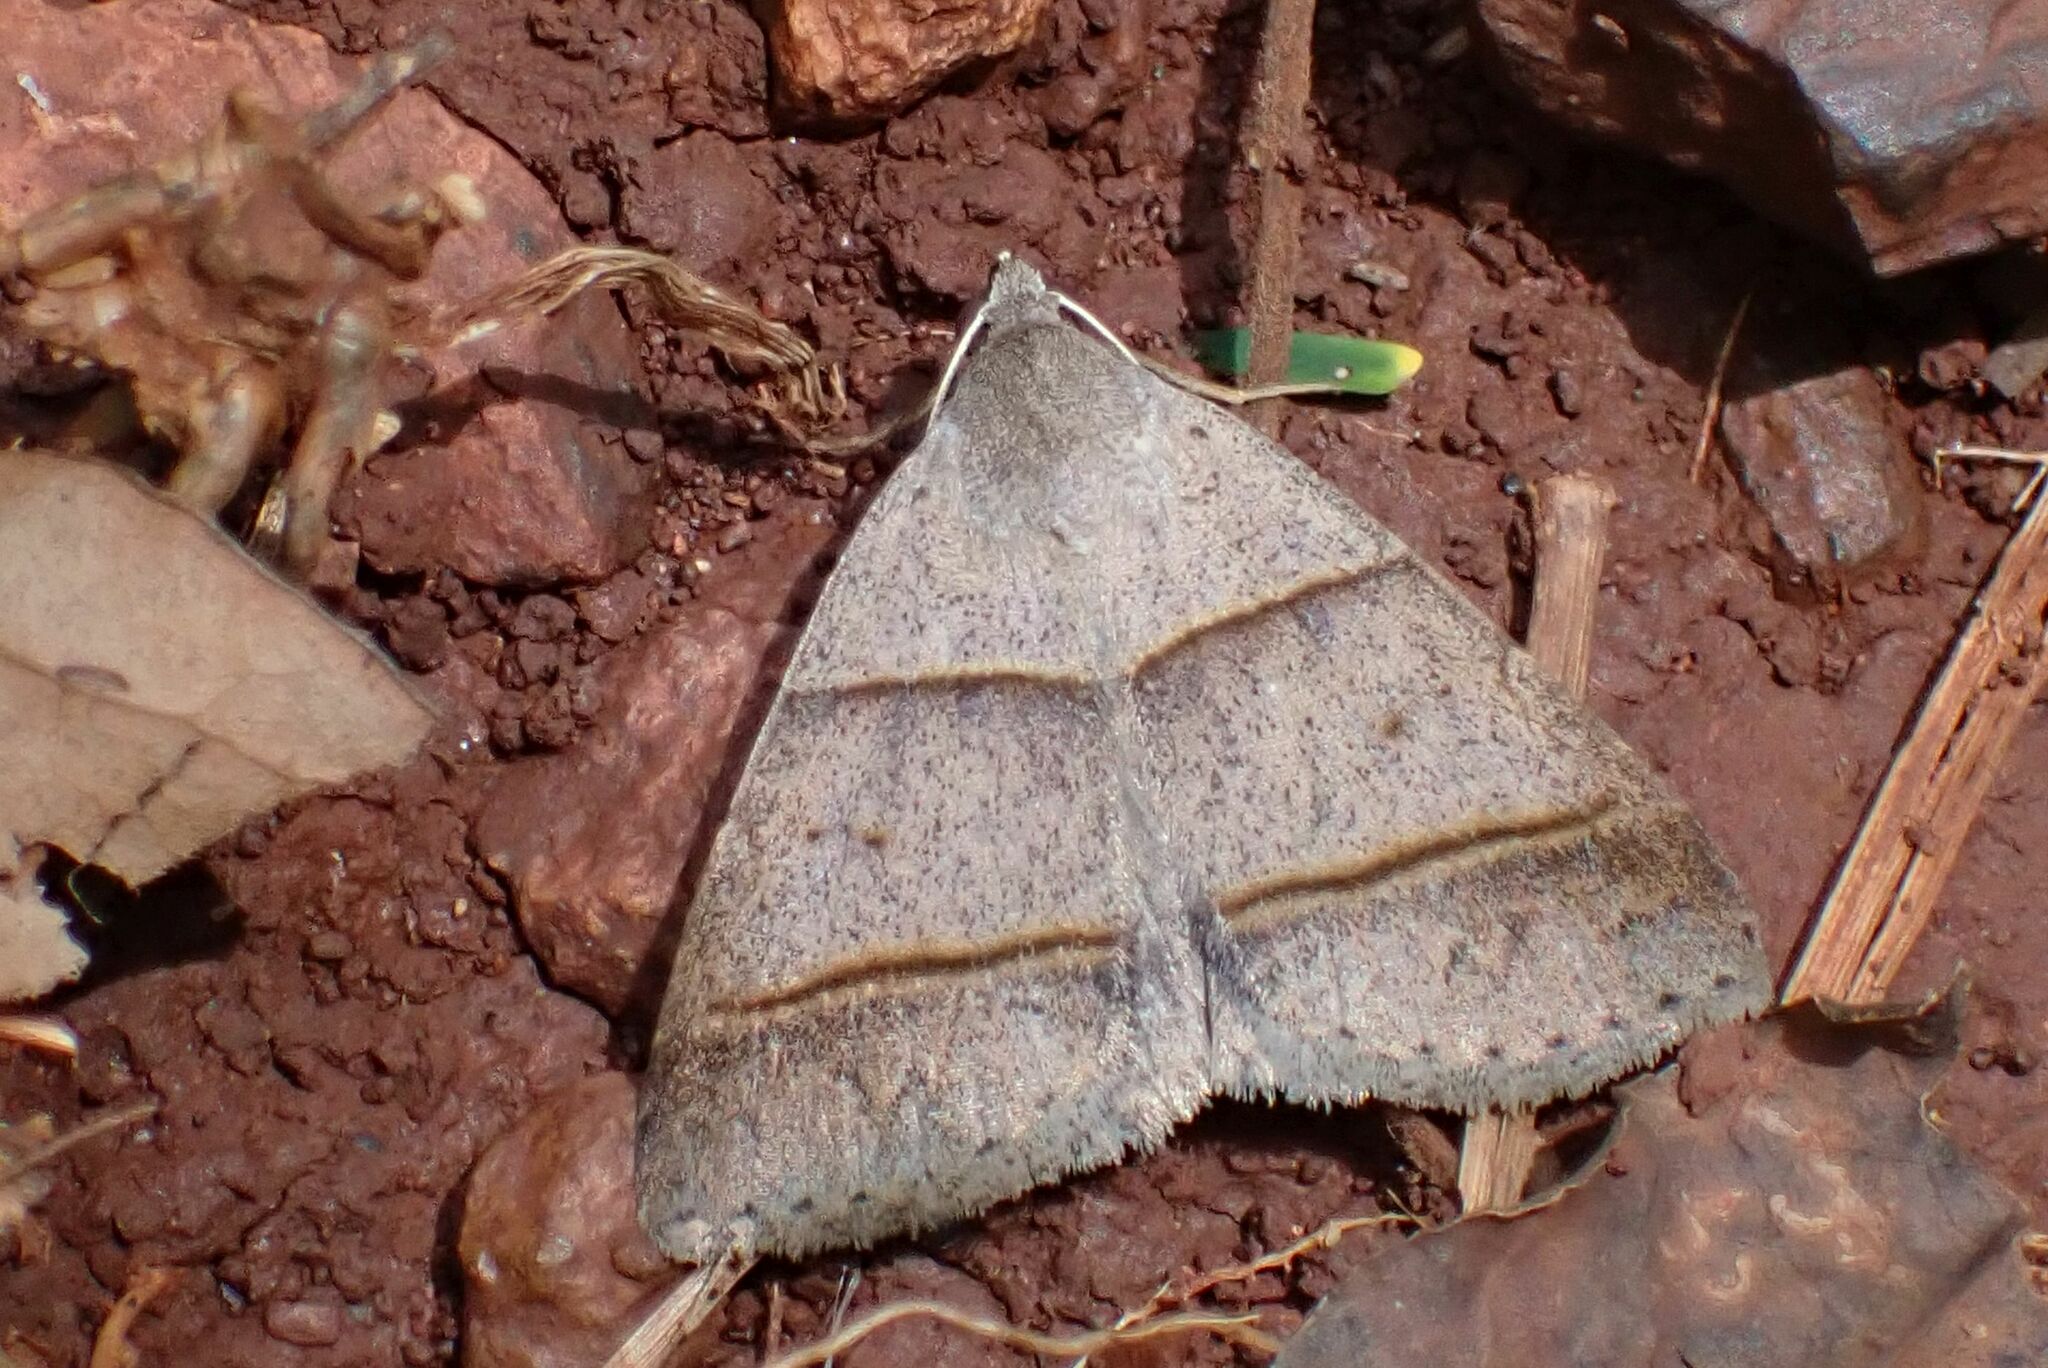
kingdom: Animalia
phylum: Arthropoda
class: Insecta
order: Lepidoptera
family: Erebidae
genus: Plecoptera
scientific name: Plecoptera laniata
